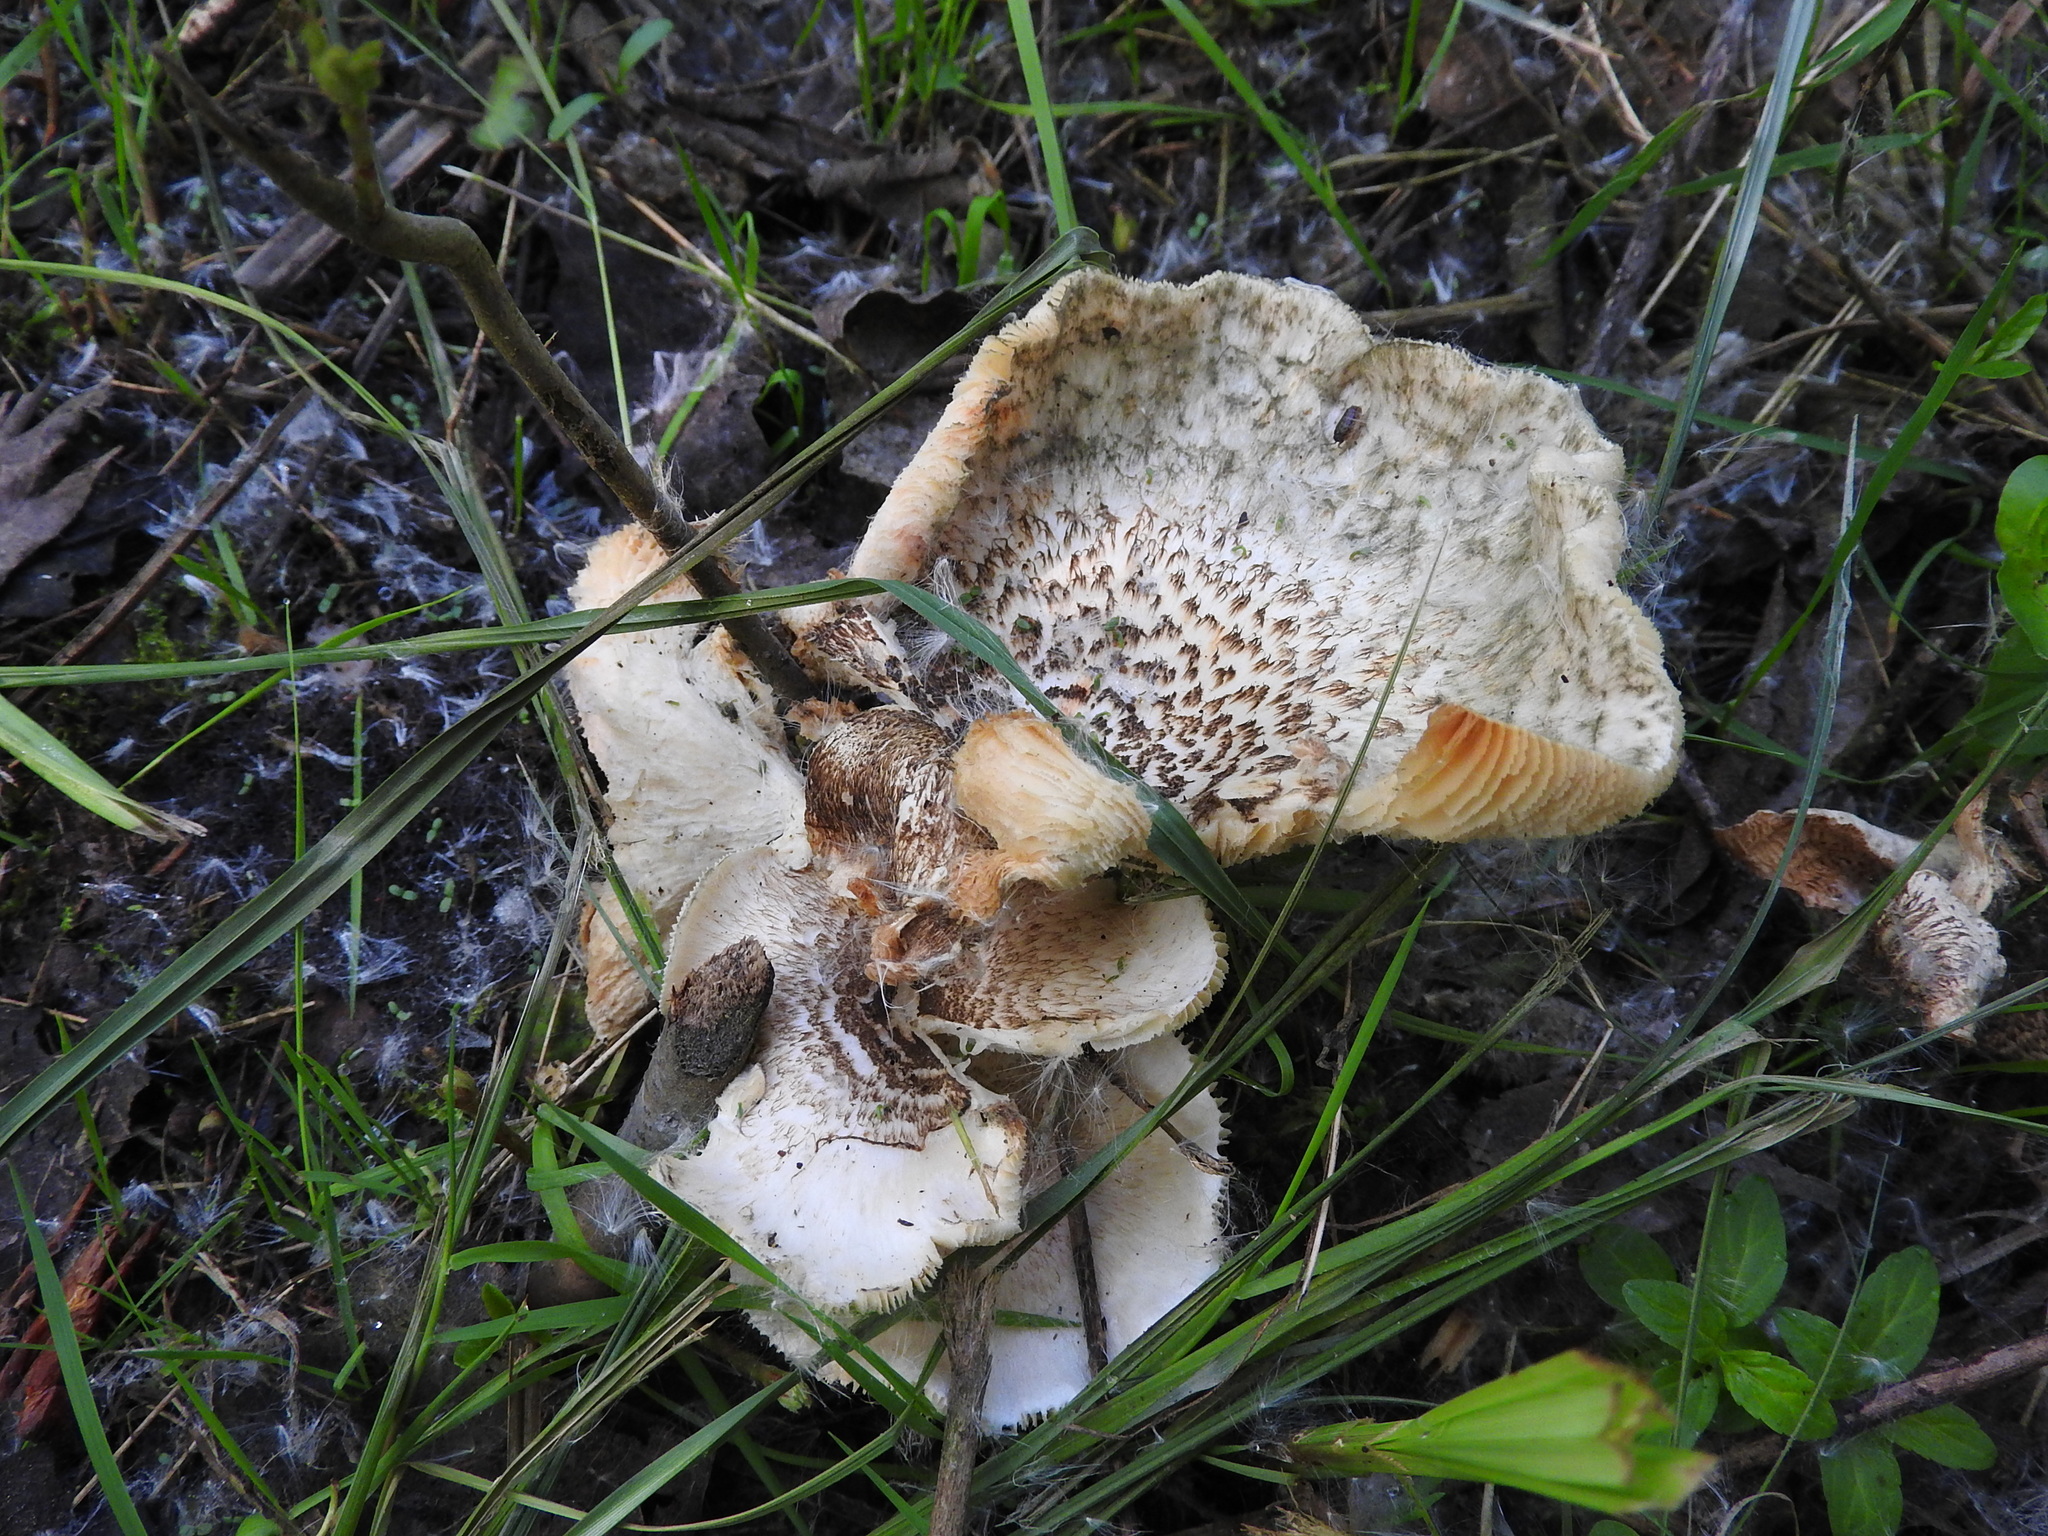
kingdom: Fungi
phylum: Basidiomycota
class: Agaricomycetes
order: Polyporales
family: Polyporaceae
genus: Lentinus
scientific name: Lentinus tigrinus
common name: Tiger sawgill
